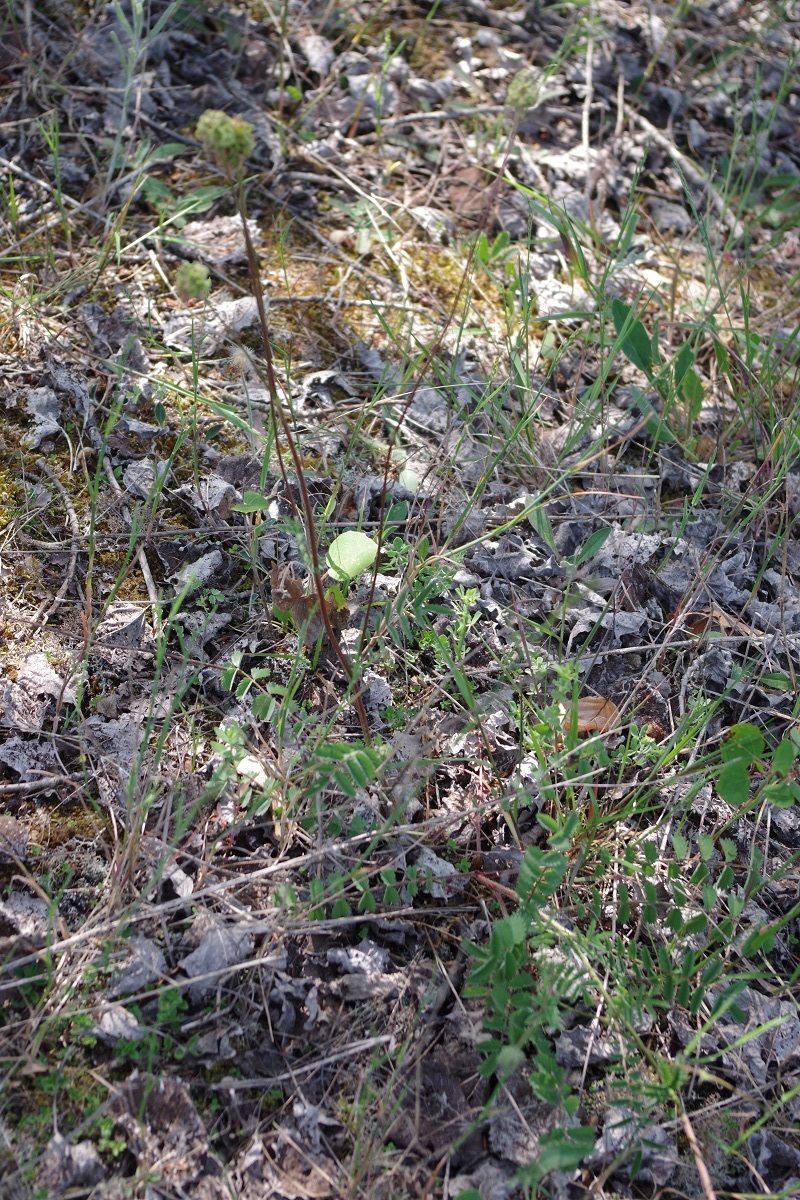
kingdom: Plantae
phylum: Tracheophyta
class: Magnoliopsida
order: Rosales
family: Rosaceae
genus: Poterium
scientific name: Poterium sanguisorba
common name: Salad burnet
